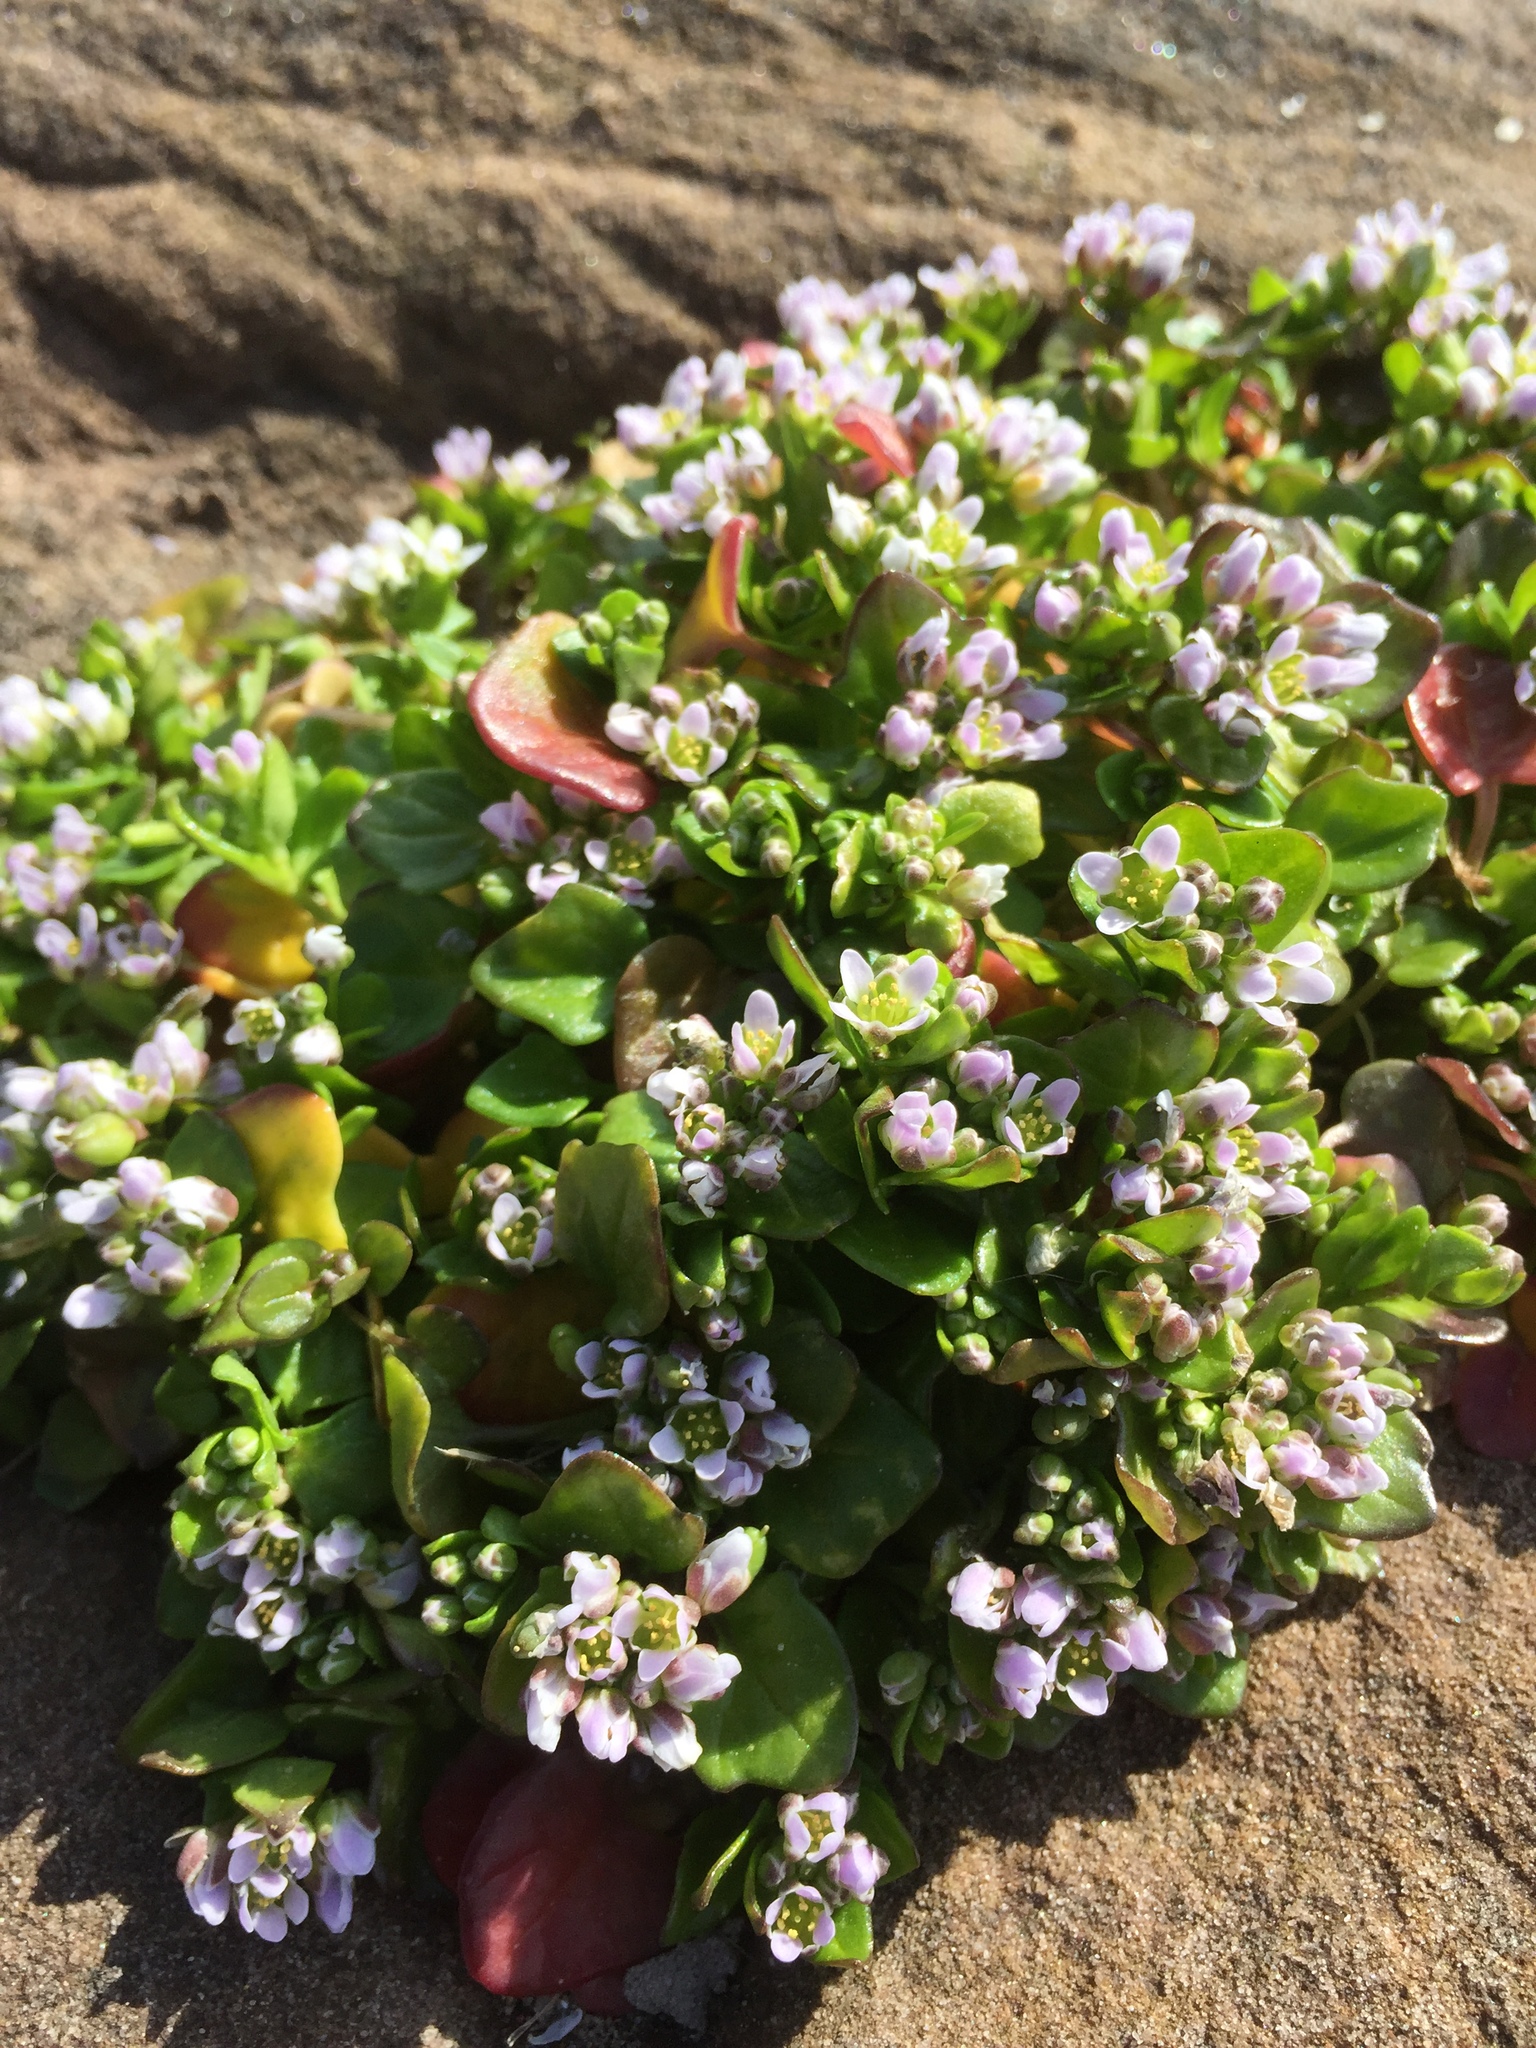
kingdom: Plantae
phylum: Tracheophyta
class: Magnoliopsida
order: Brassicales
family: Brassicaceae
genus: Cochlearia
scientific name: Cochlearia danica
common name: Early scurvygrass
